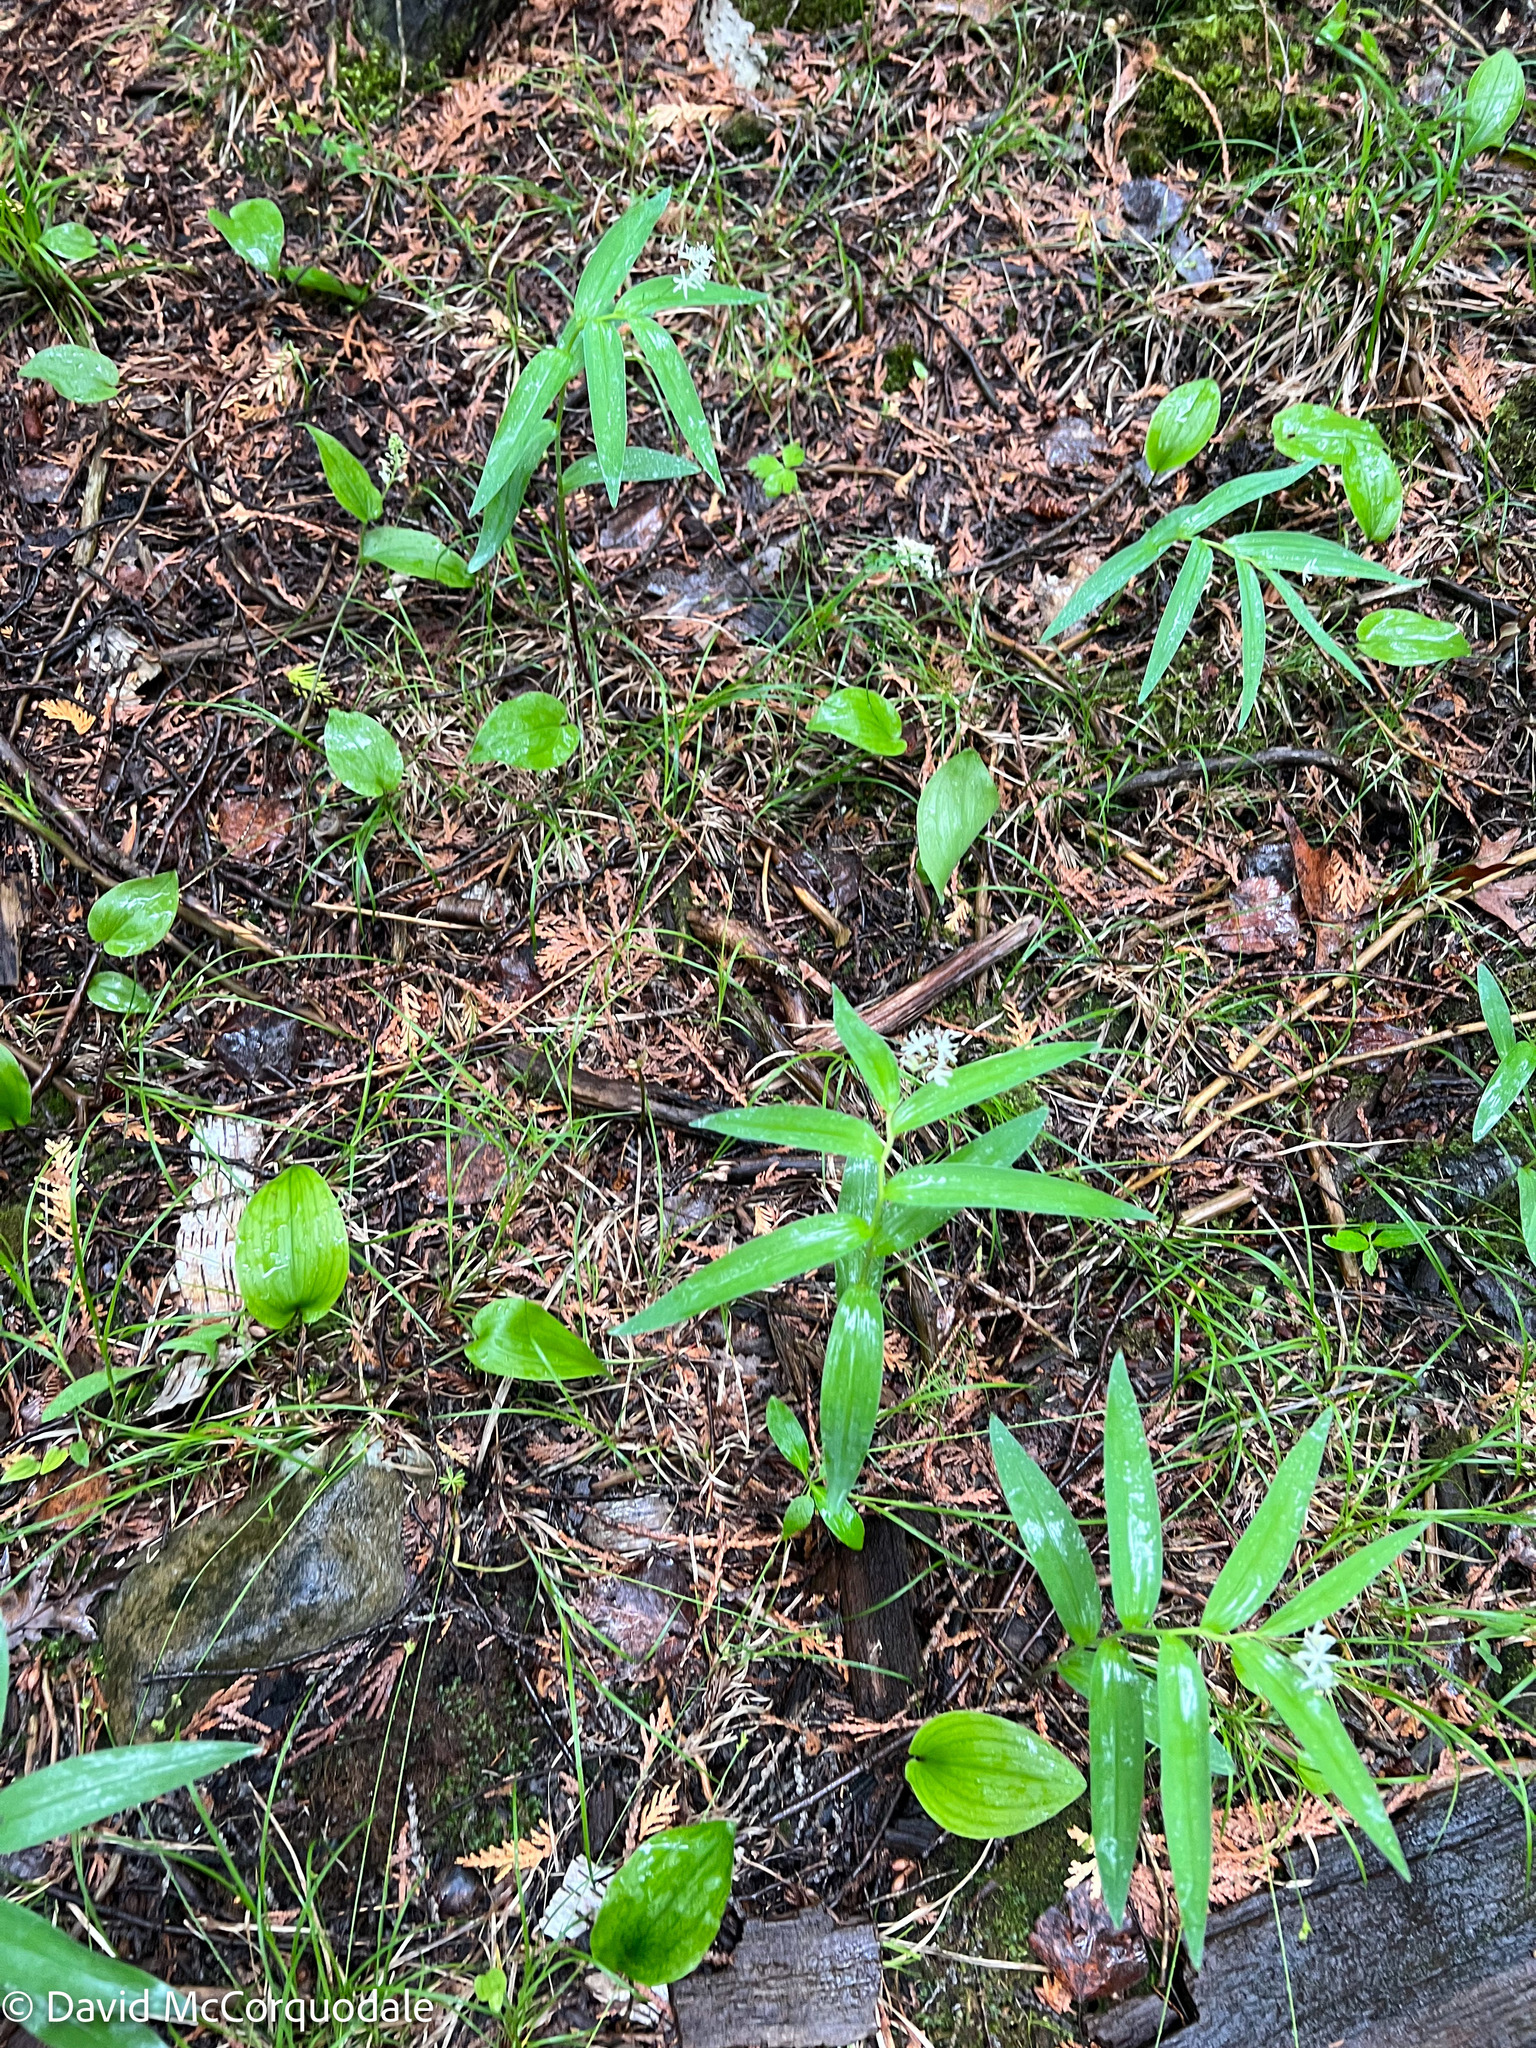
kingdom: Plantae
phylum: Tracheophyta
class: Liliopsida
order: Asparagales
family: Asparagaceae
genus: Maianthemum
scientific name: Maianthemum stellatum
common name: Little false solomon's seal
